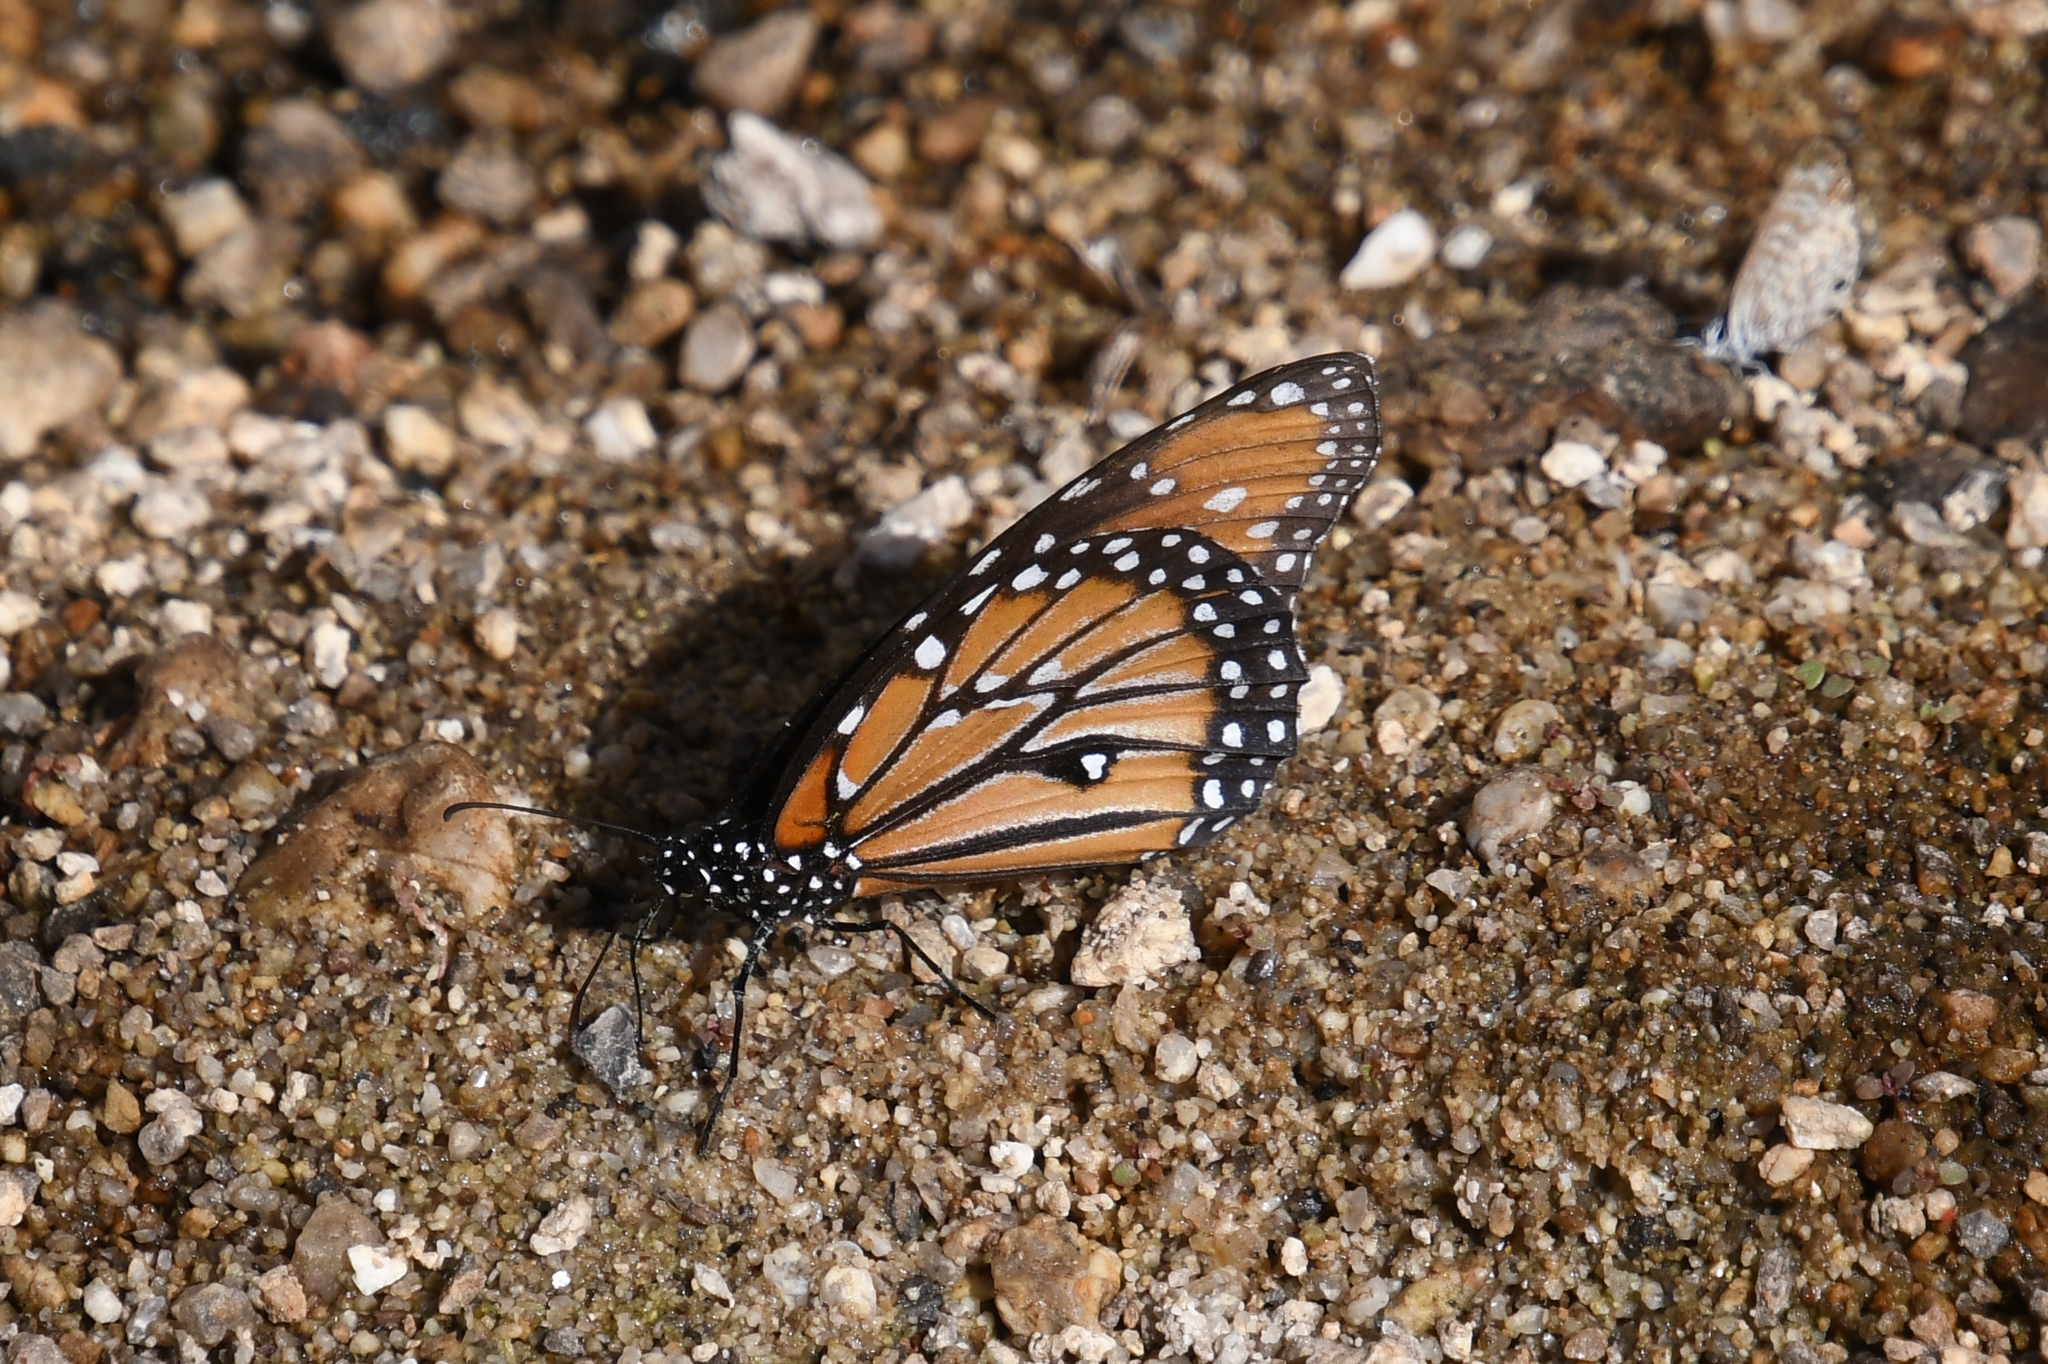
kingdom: Animalia
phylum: Arthropoda
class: Insecta
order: Lepidoptera
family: Nymphalidae
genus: Danaus
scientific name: Danaus gilippus
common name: Queen
